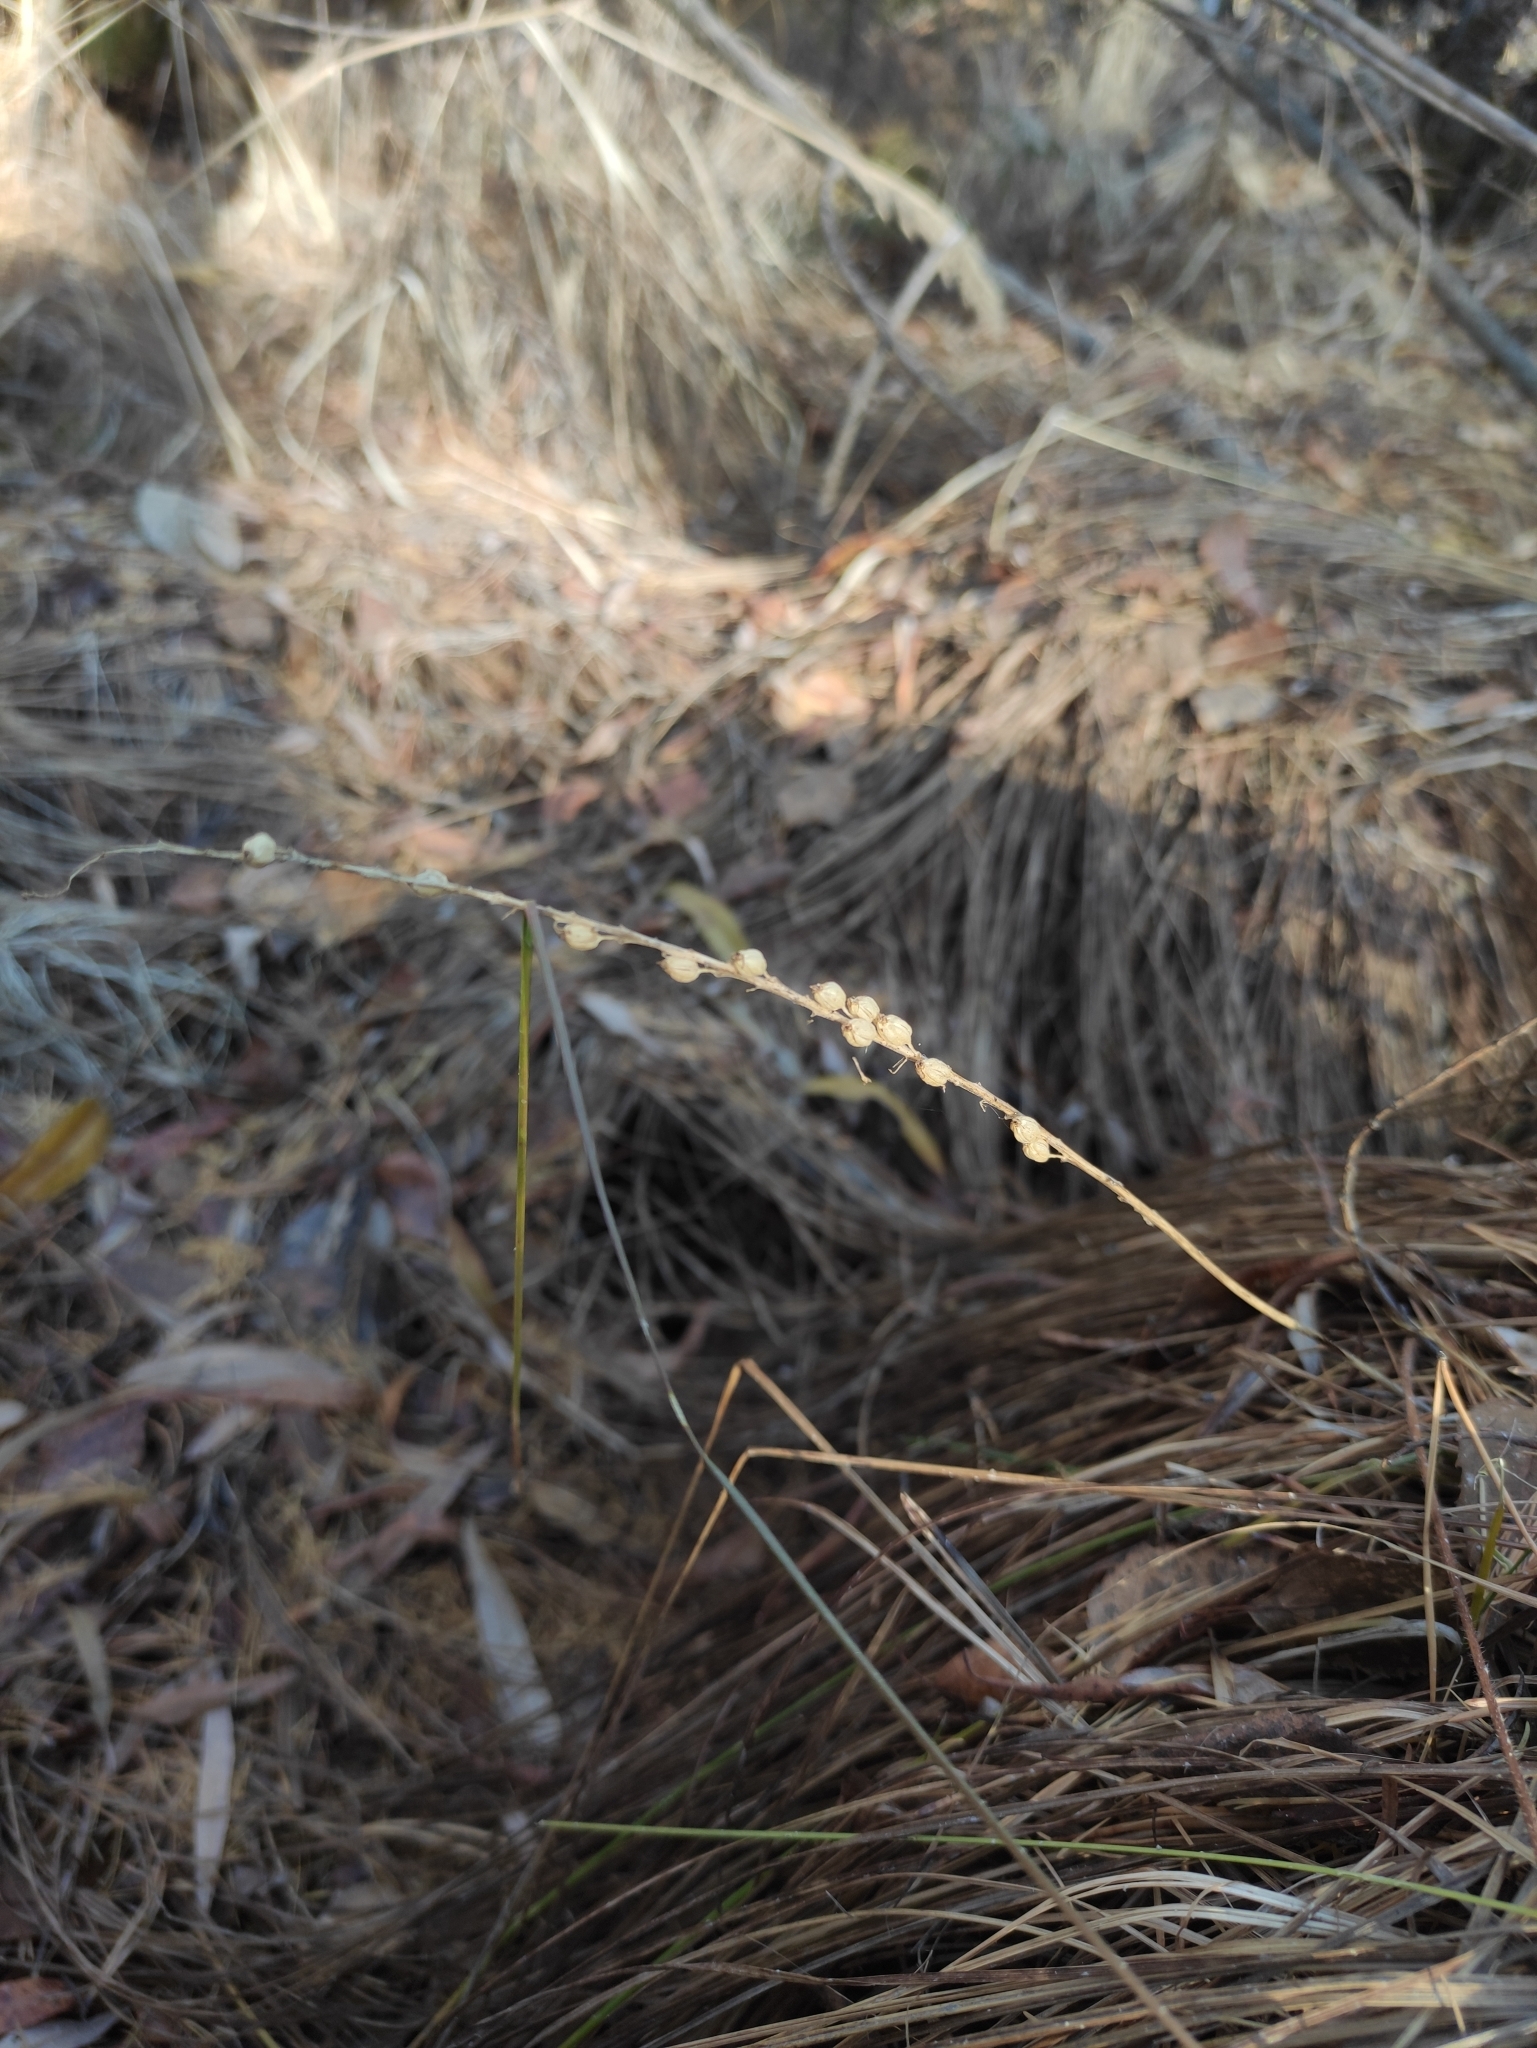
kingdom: Plantae
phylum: Tracheophyta
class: Liliopsida
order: Asparagales
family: Orchidaceae
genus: Malaxis
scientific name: Malaxis monophyllos
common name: White adder's-mouth
